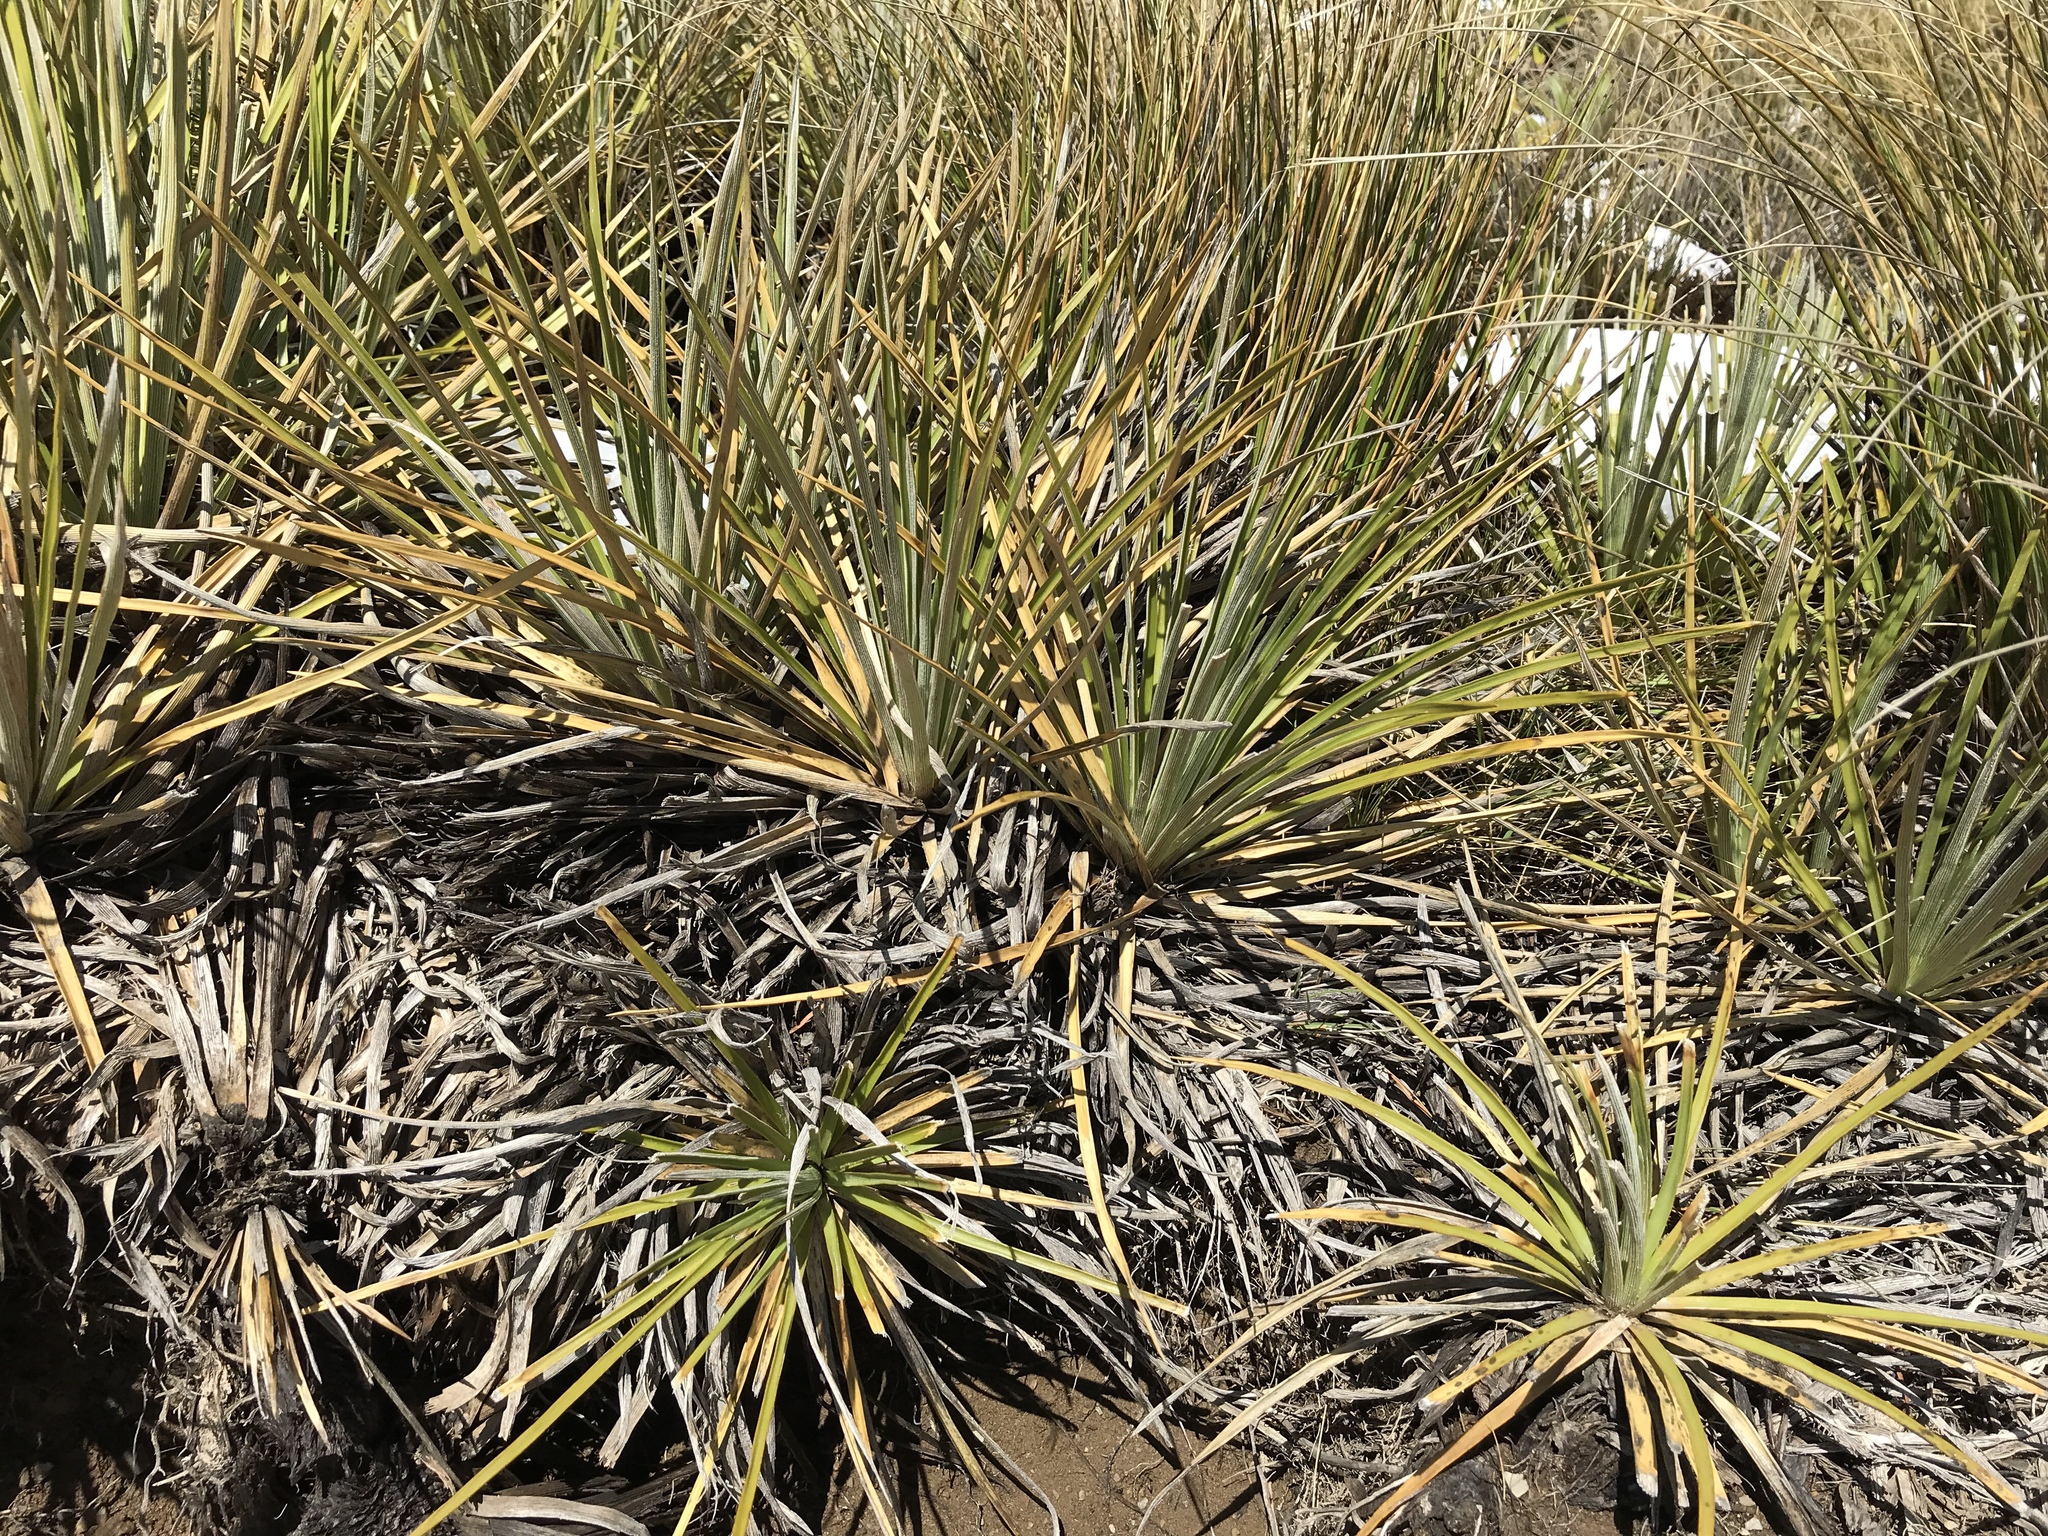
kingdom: Plantae
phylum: Tracheophyta
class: Magnoliopsida
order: Asterales
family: Asteraceae
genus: Celmisia
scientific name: Celmisia lyallii
